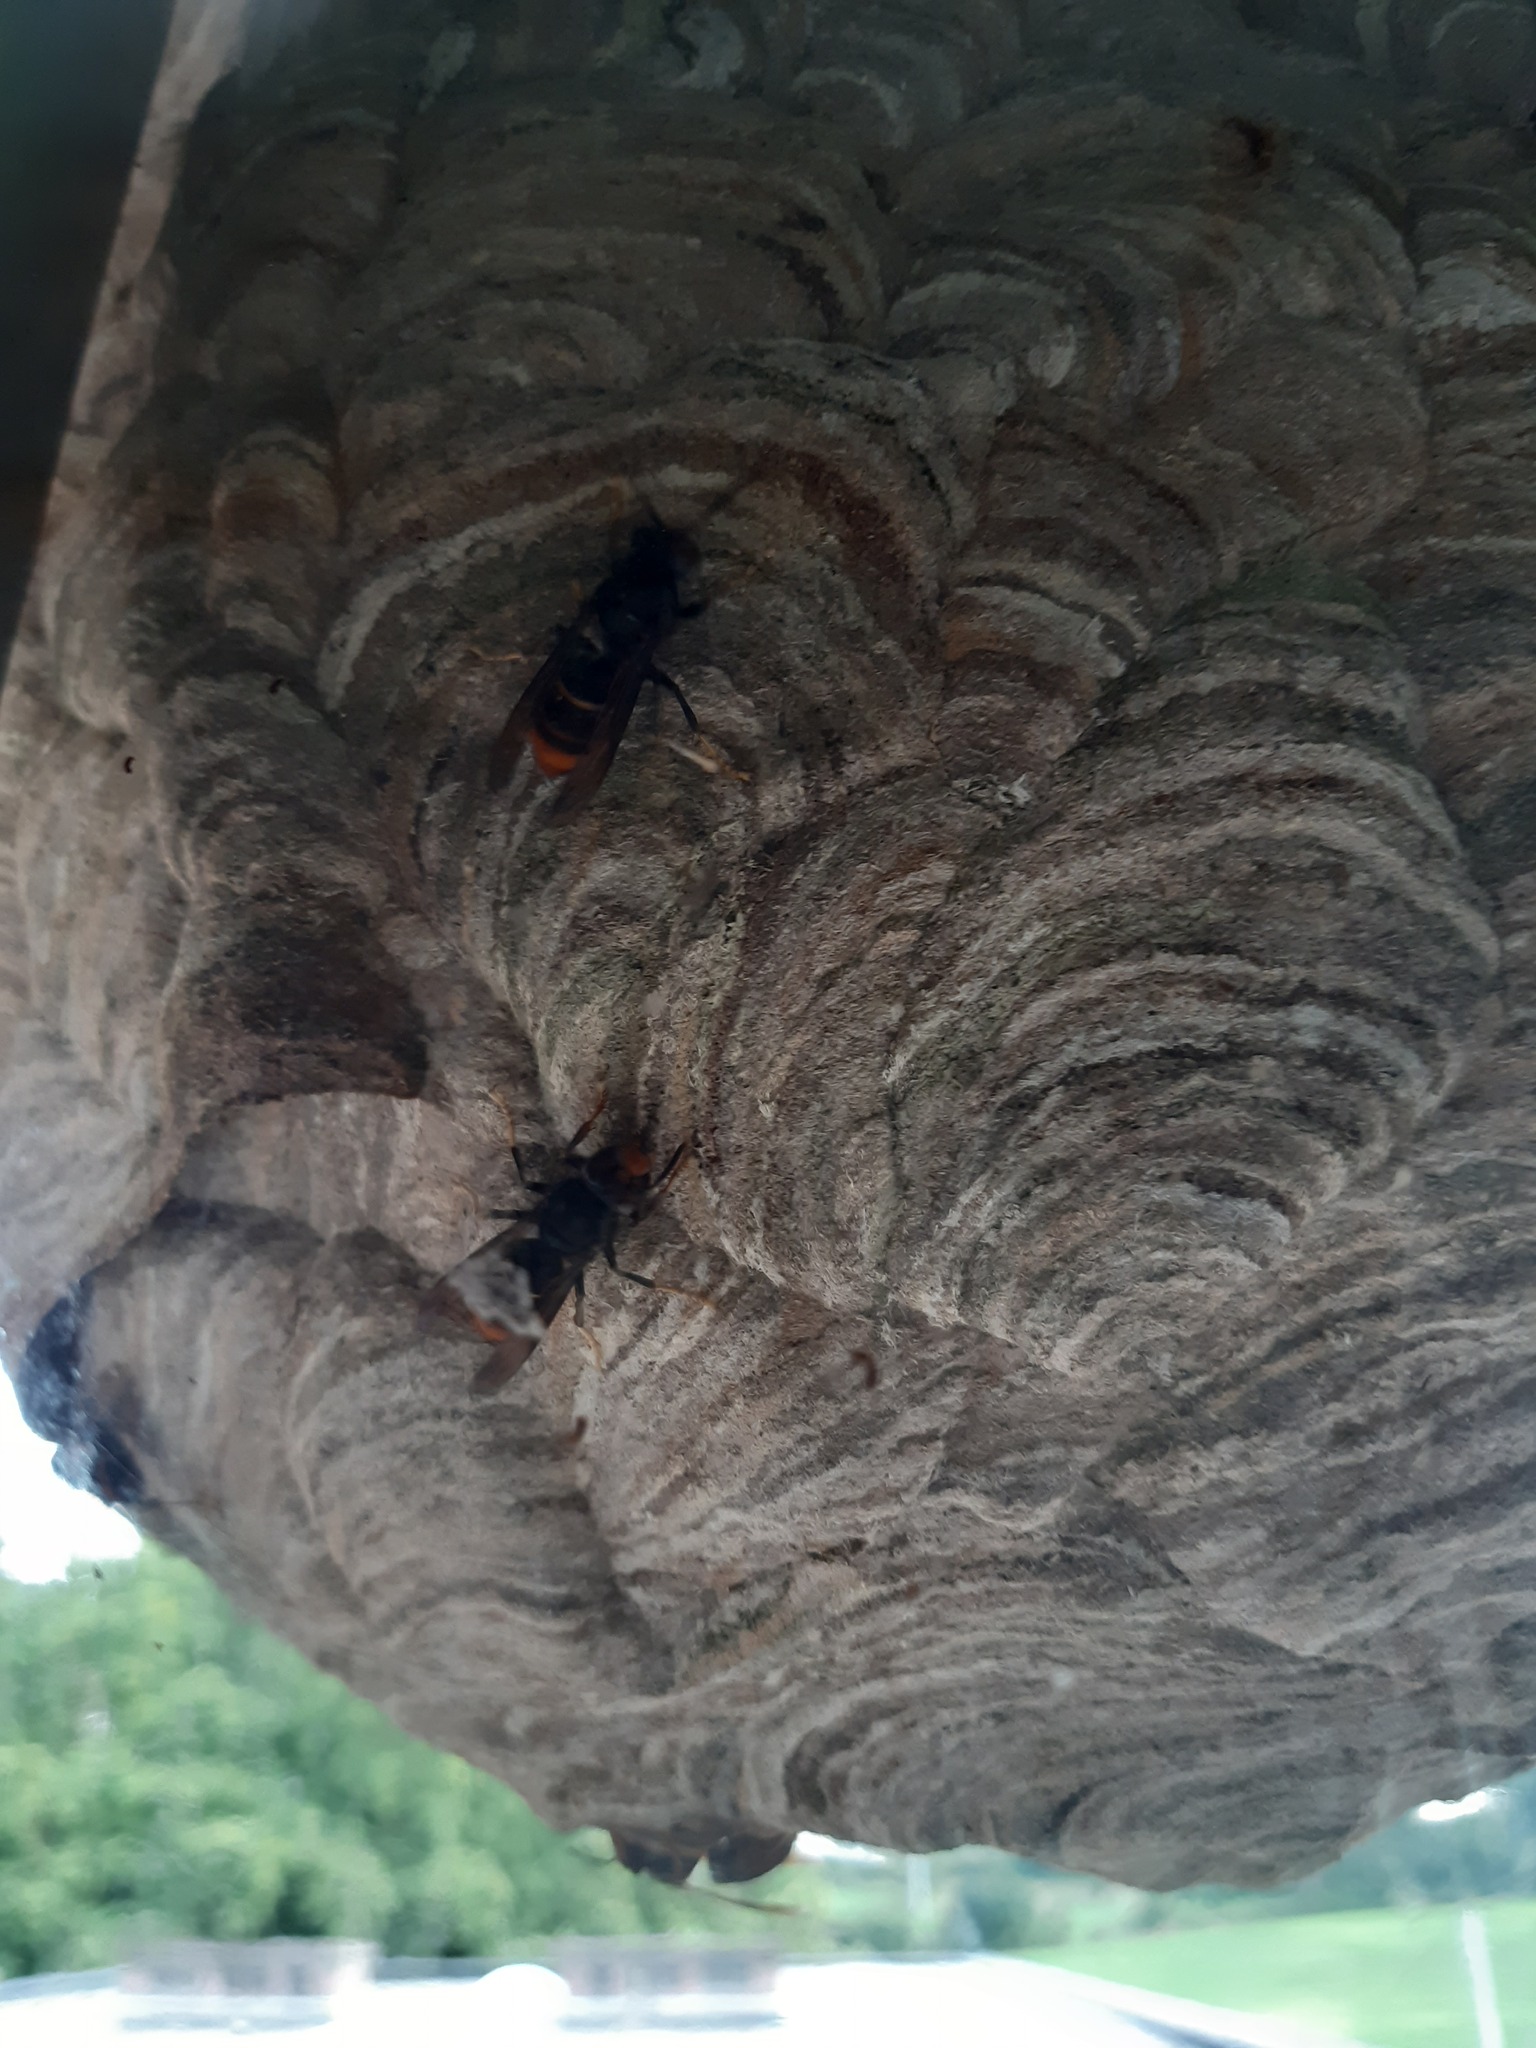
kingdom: Animalia
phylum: Arthropoda
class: Insecta
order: Hymenoptera
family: Vespidae
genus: Vespa
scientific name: Vespa velutina
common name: Asian hornet
